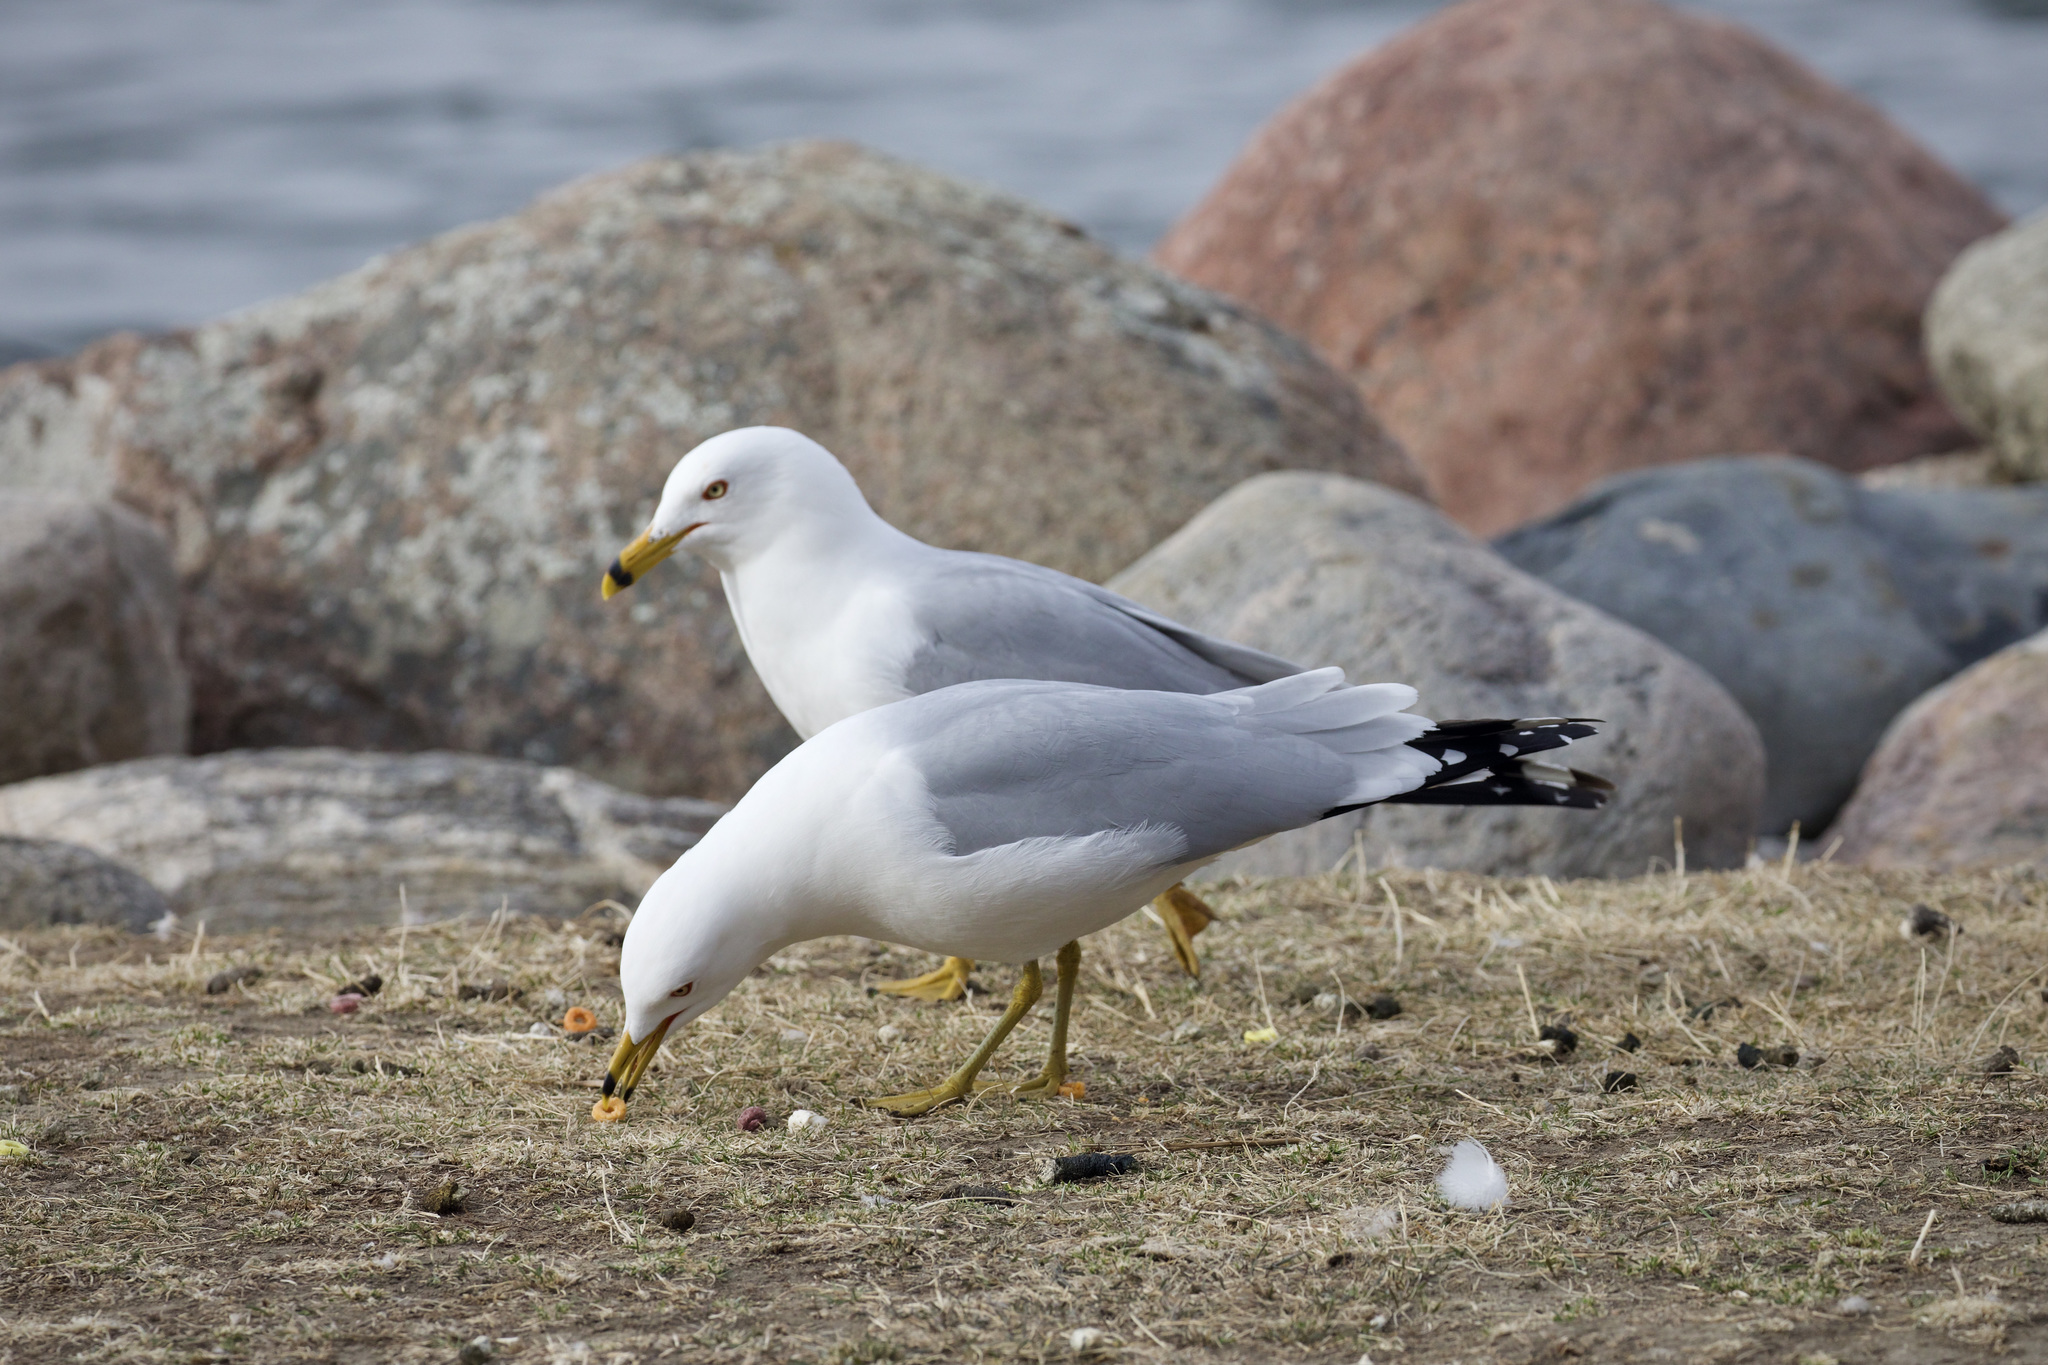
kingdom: Animalia
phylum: Chordata
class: Aves
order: Charadriiformes
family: Laridae
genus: Larus
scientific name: Larus delawarensis
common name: Ring-billed gull
